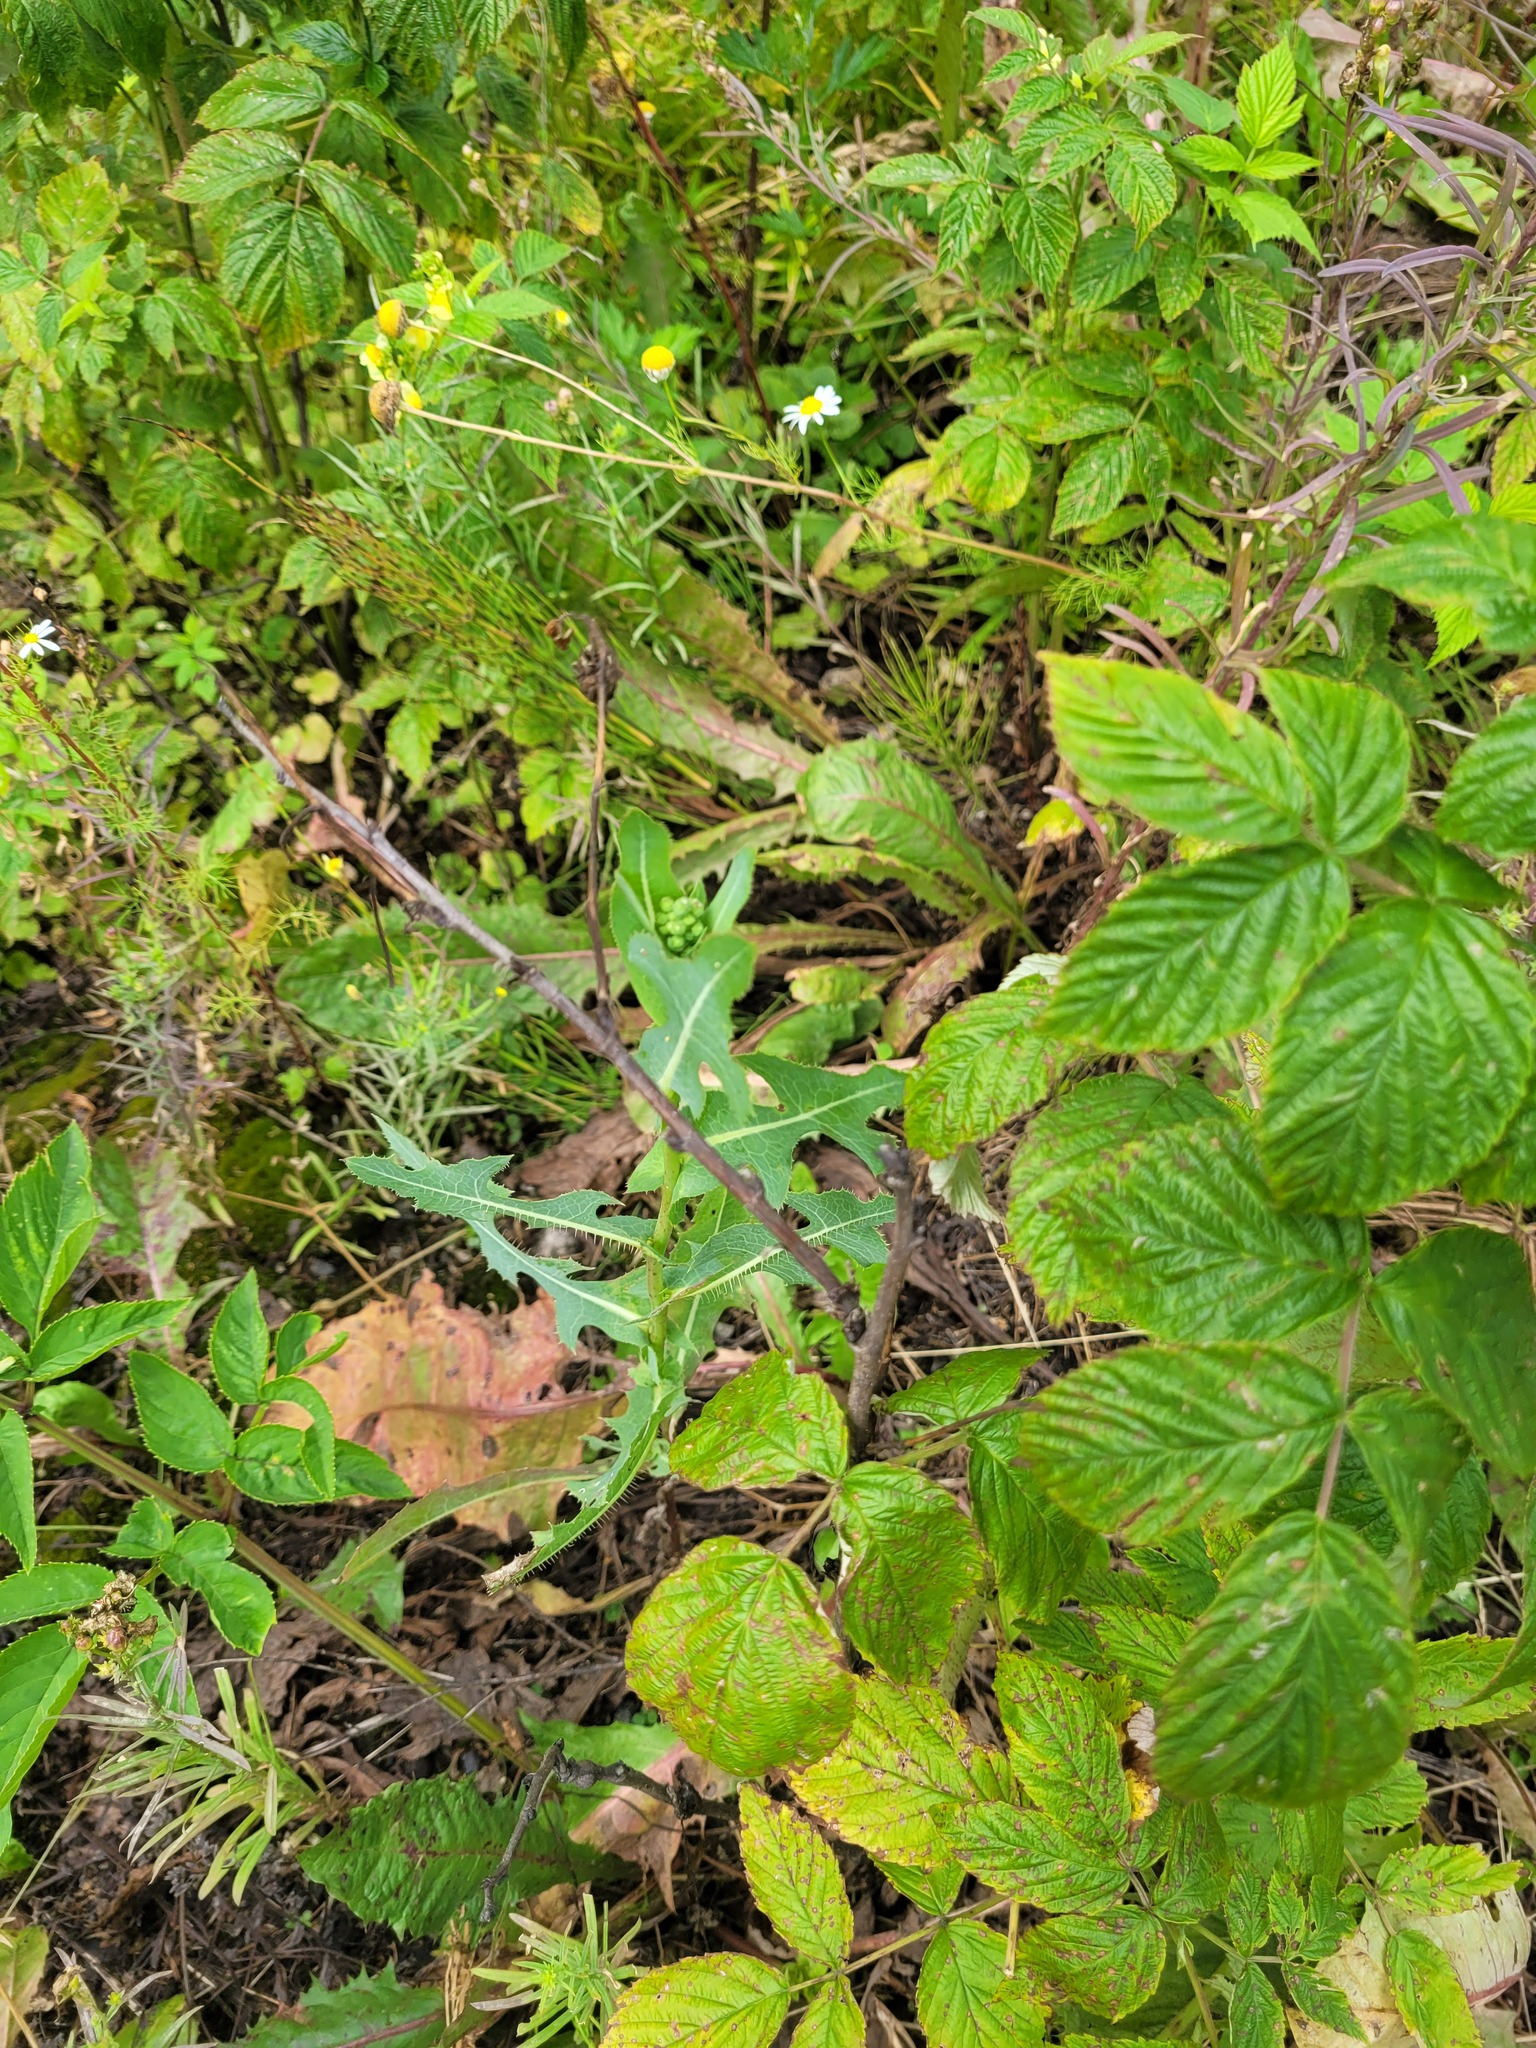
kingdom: Plantae
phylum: Tracheophyta
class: Magnoliopsida
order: Asterales
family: Asteraceae
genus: Lactuca
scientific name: Lactuca serriola
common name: Prickly lettuce
